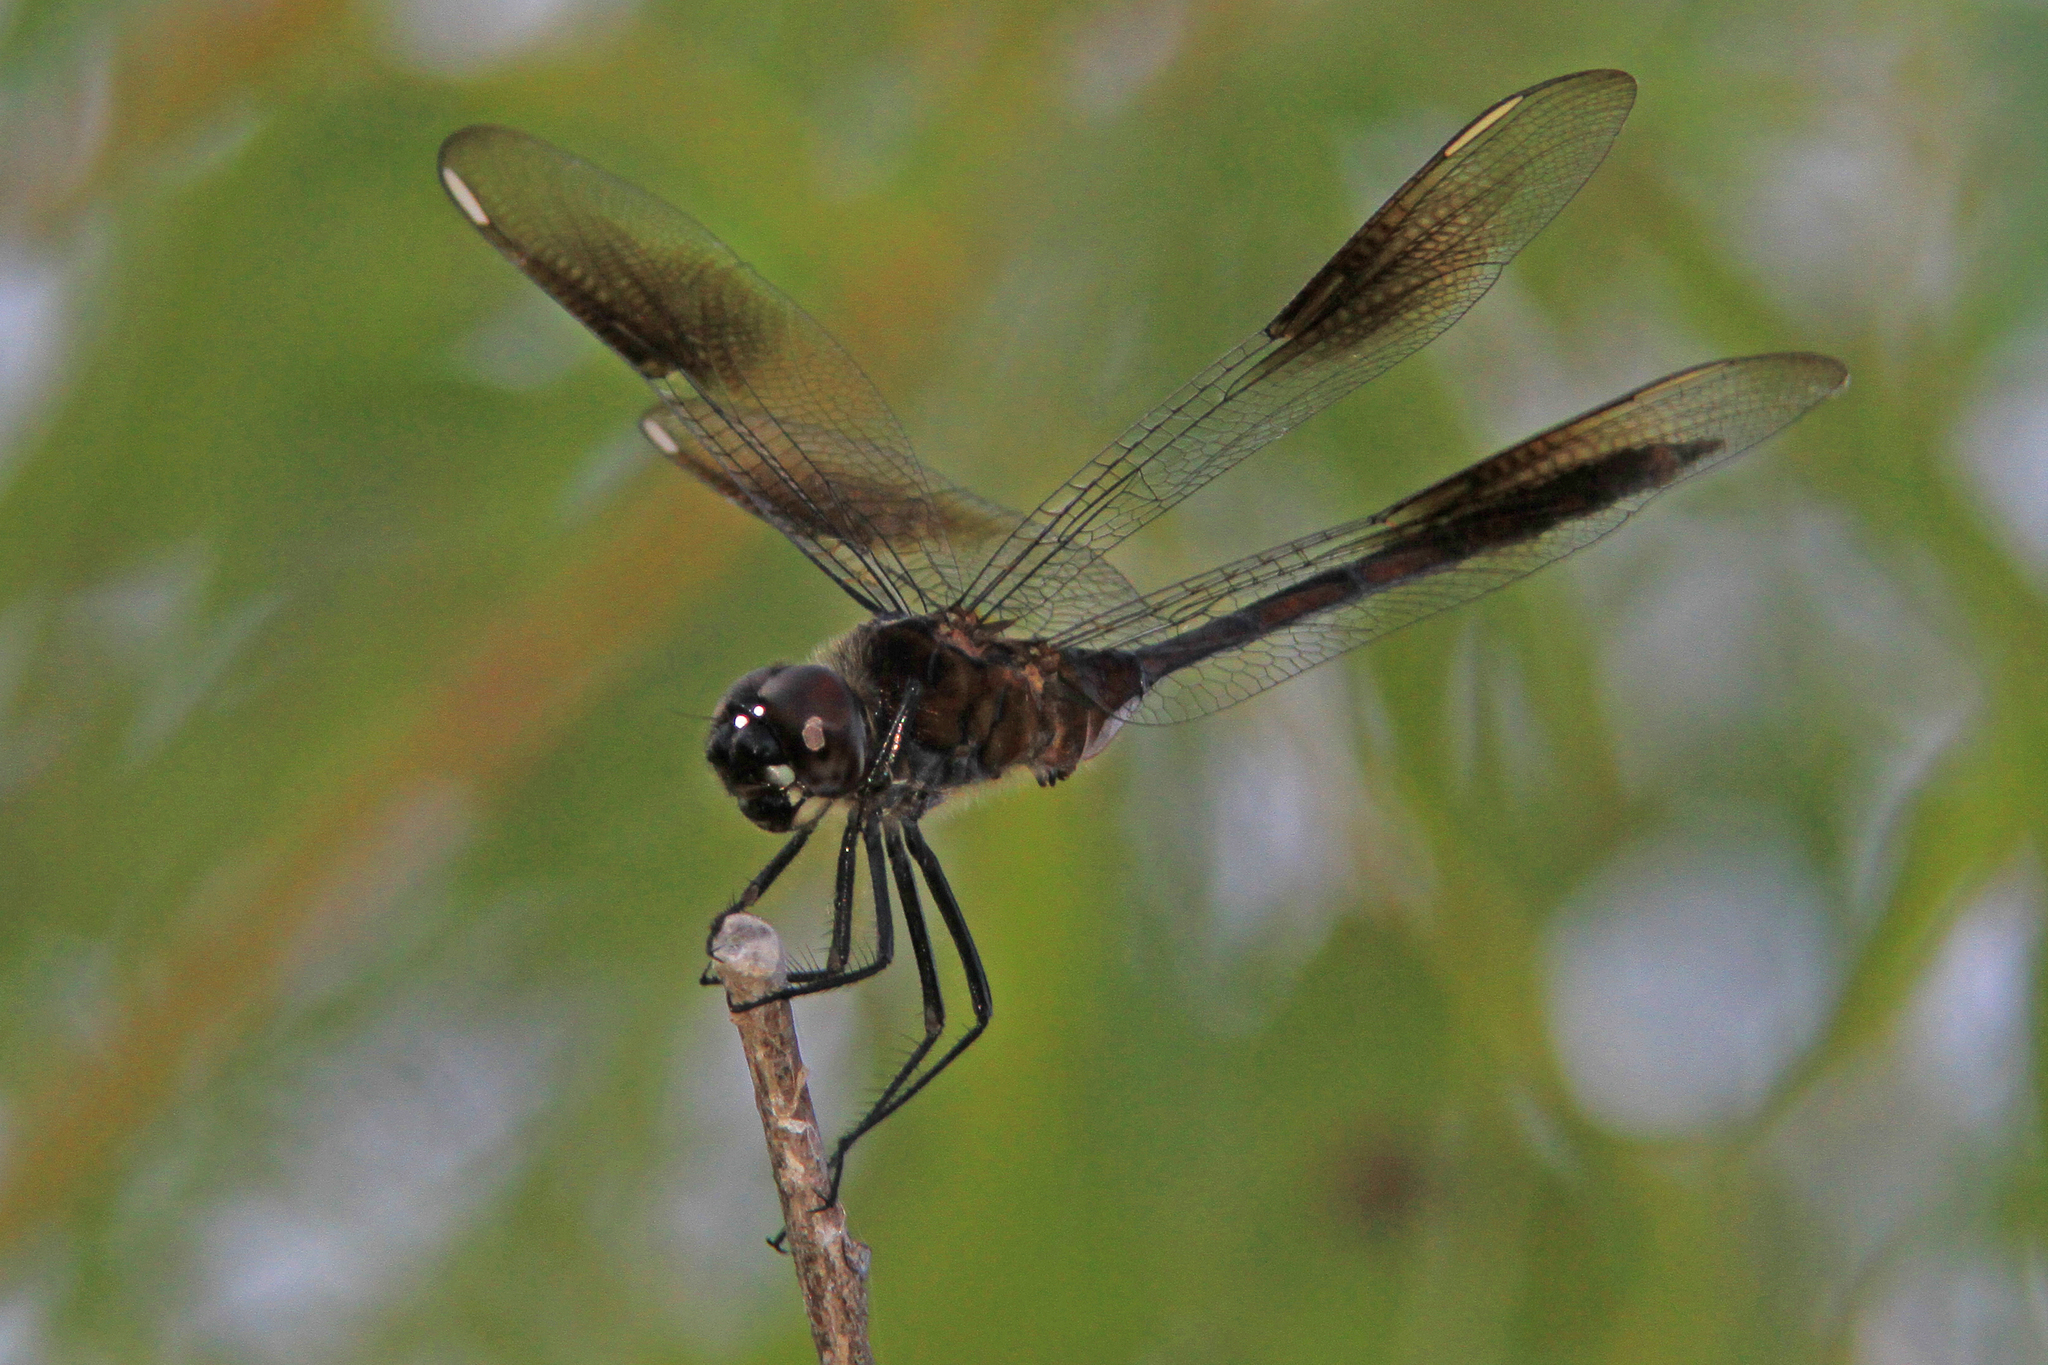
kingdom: Animalia
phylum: Arthropoda
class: Insecta
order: Odonata
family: Libellulidae
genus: Brachymesia
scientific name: Brachymesia gravida
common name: Four-spotted pennant
